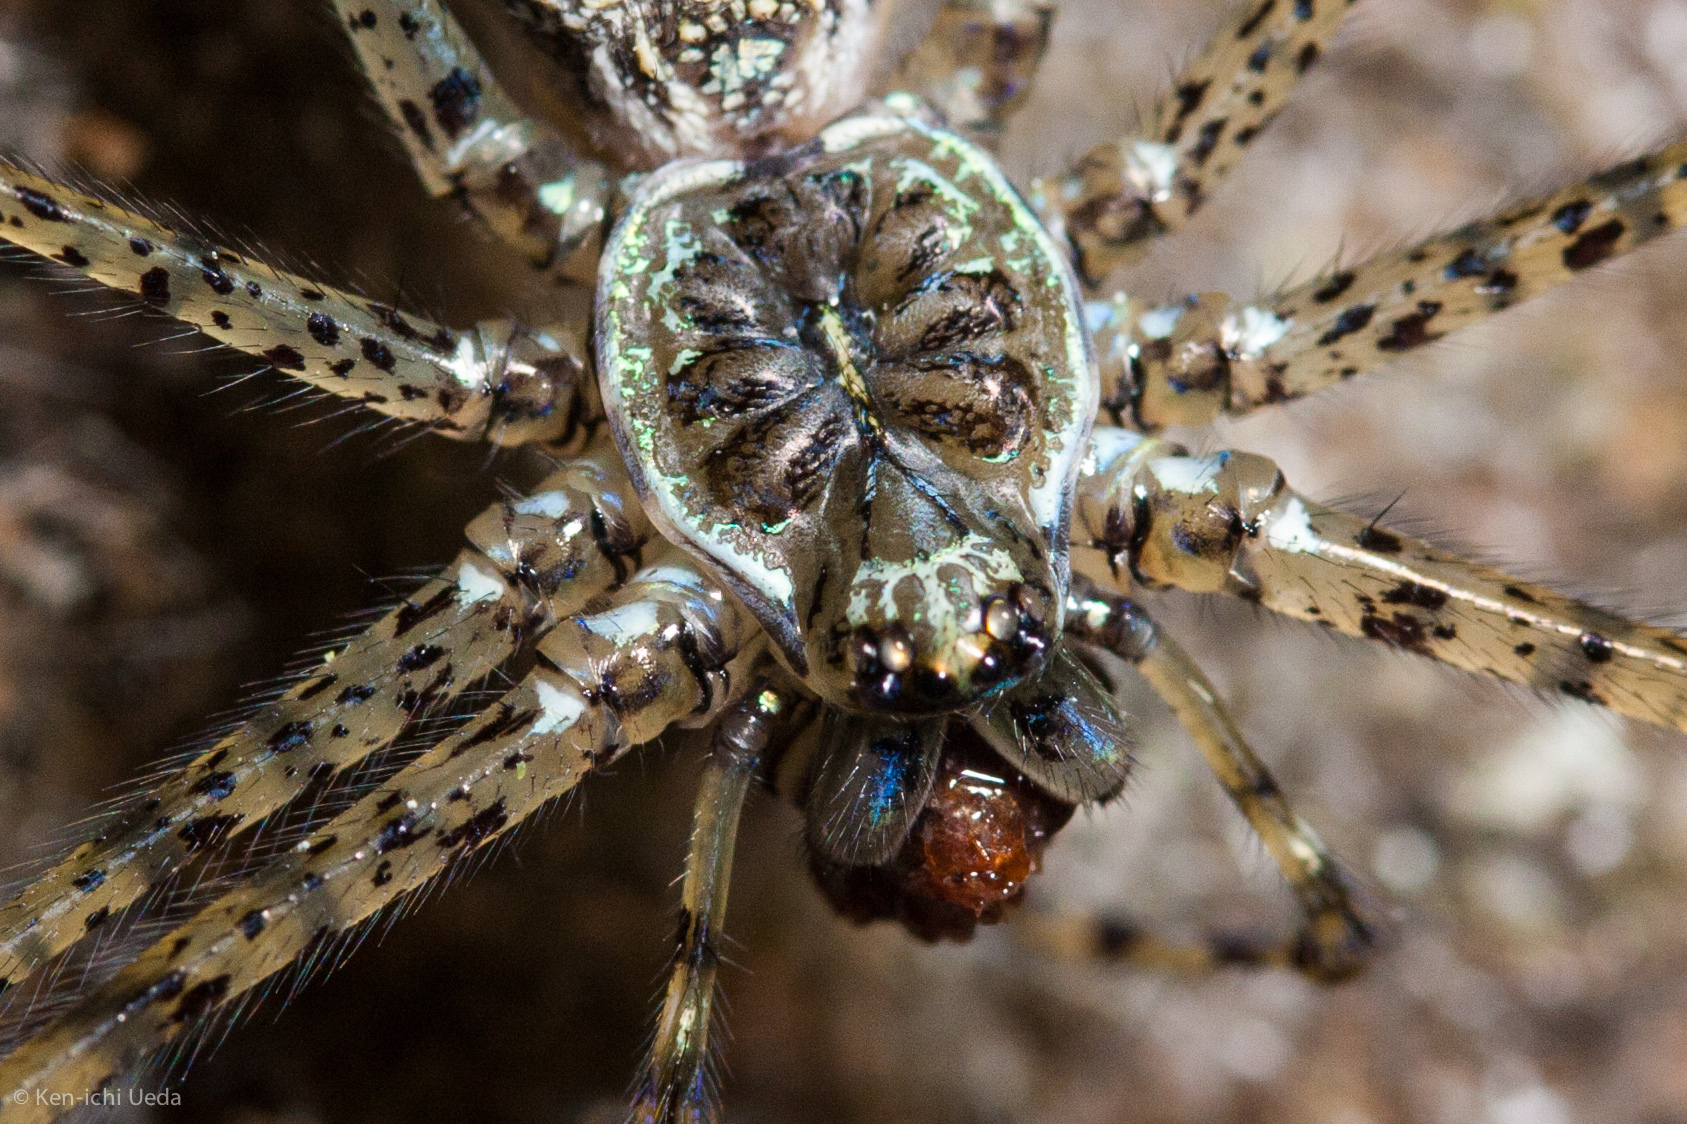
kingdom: Animalia
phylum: Arthropoda
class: Arachnida
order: Araneae
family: Hypochilidae
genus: Hypochilus
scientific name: Hypochilus pococki
